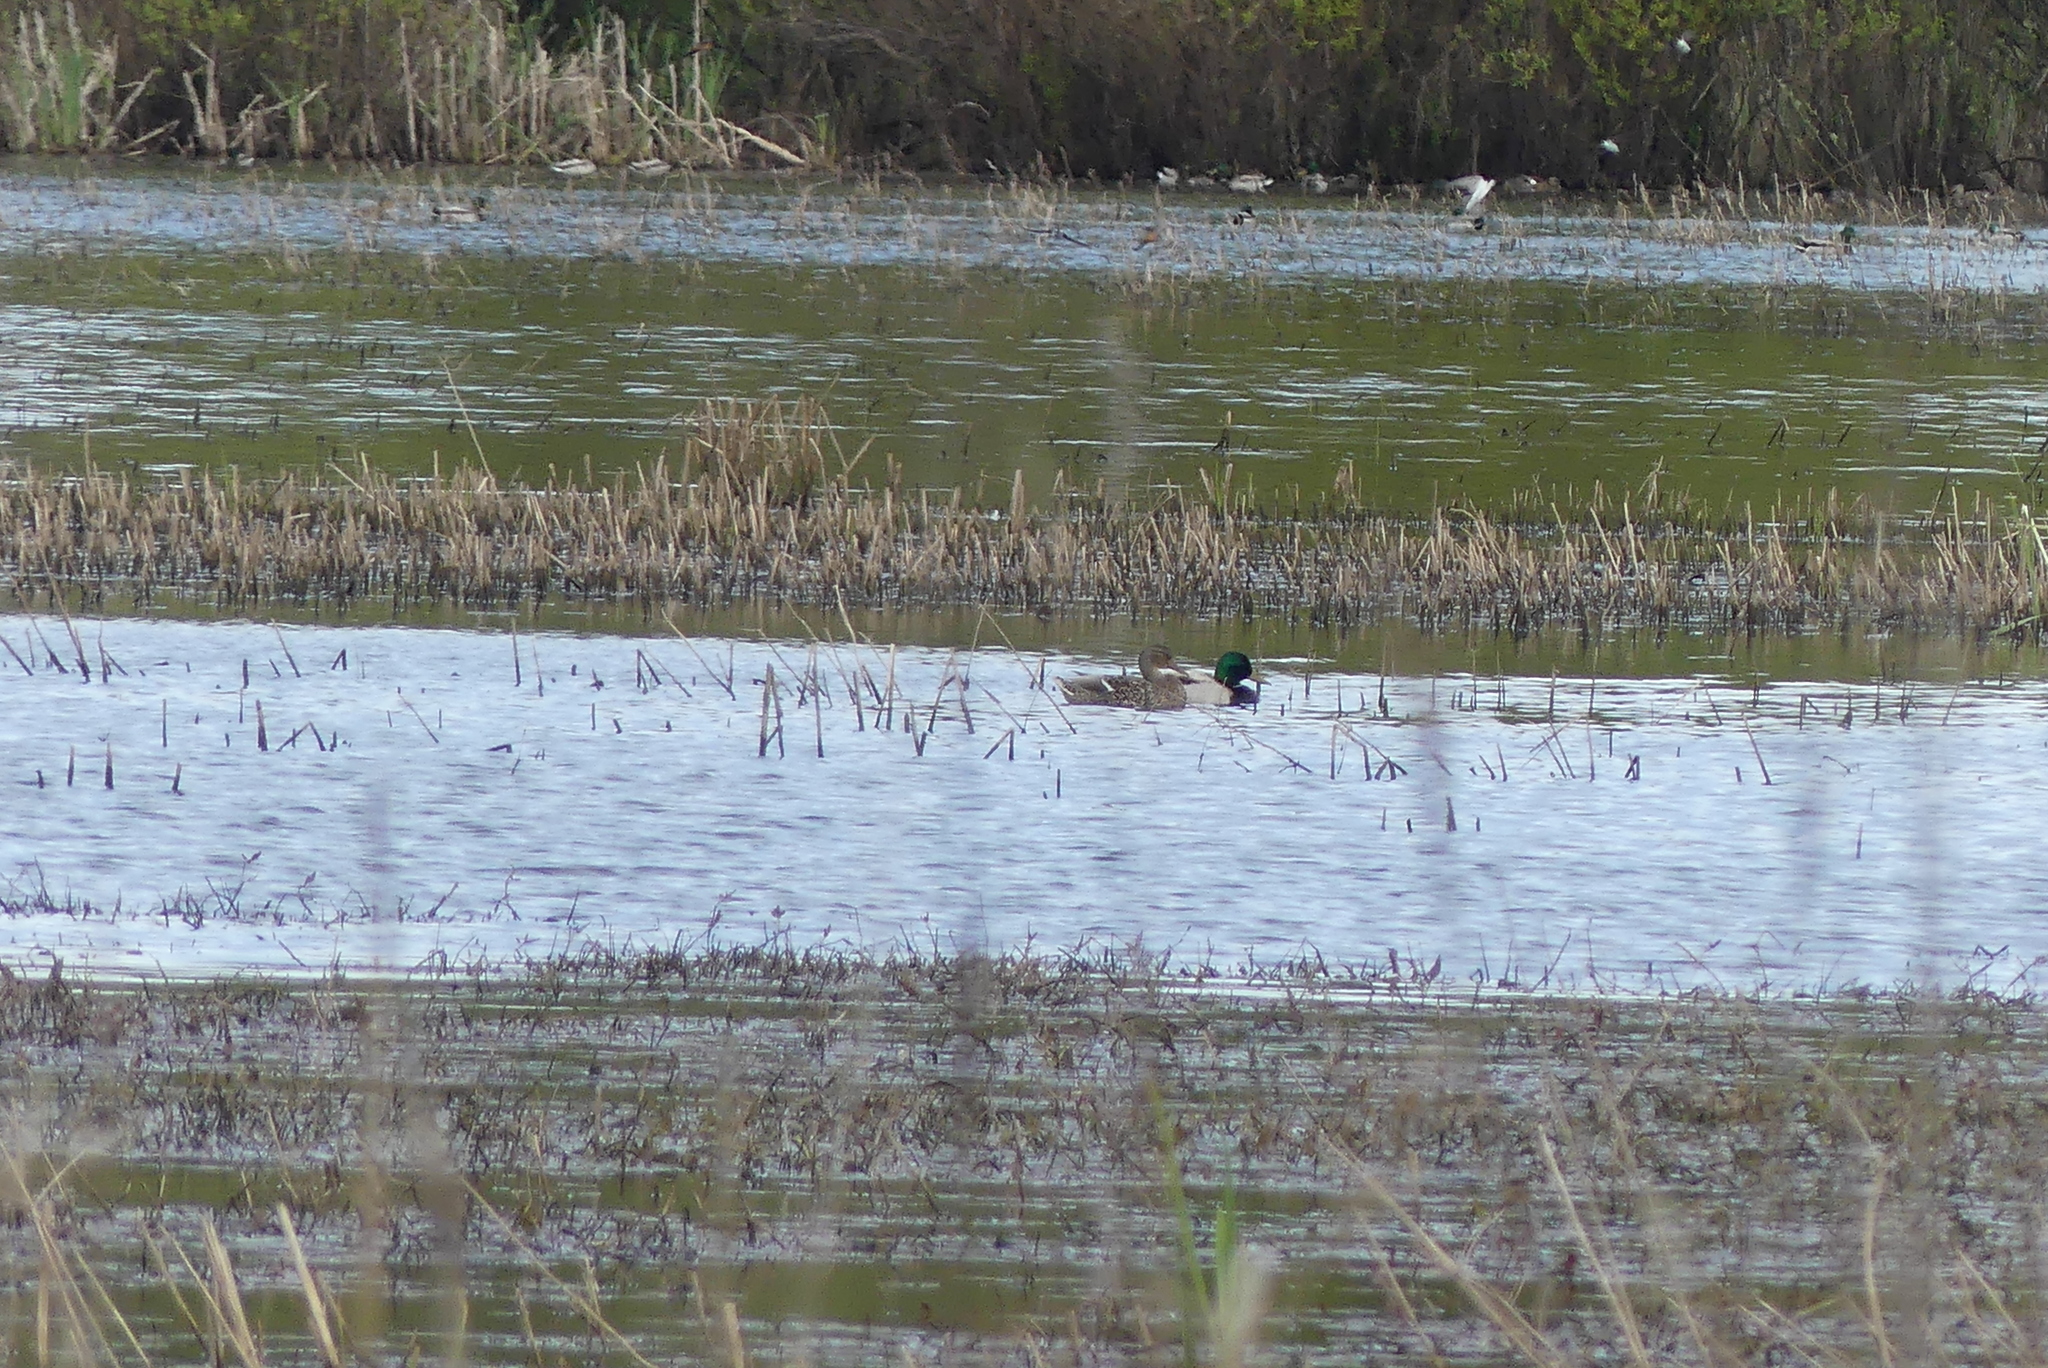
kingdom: Animalia
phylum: Chordata
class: Aves
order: Anseriformes
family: Anatidae
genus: Anas
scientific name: Anas platyrhynchos
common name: Mallard
